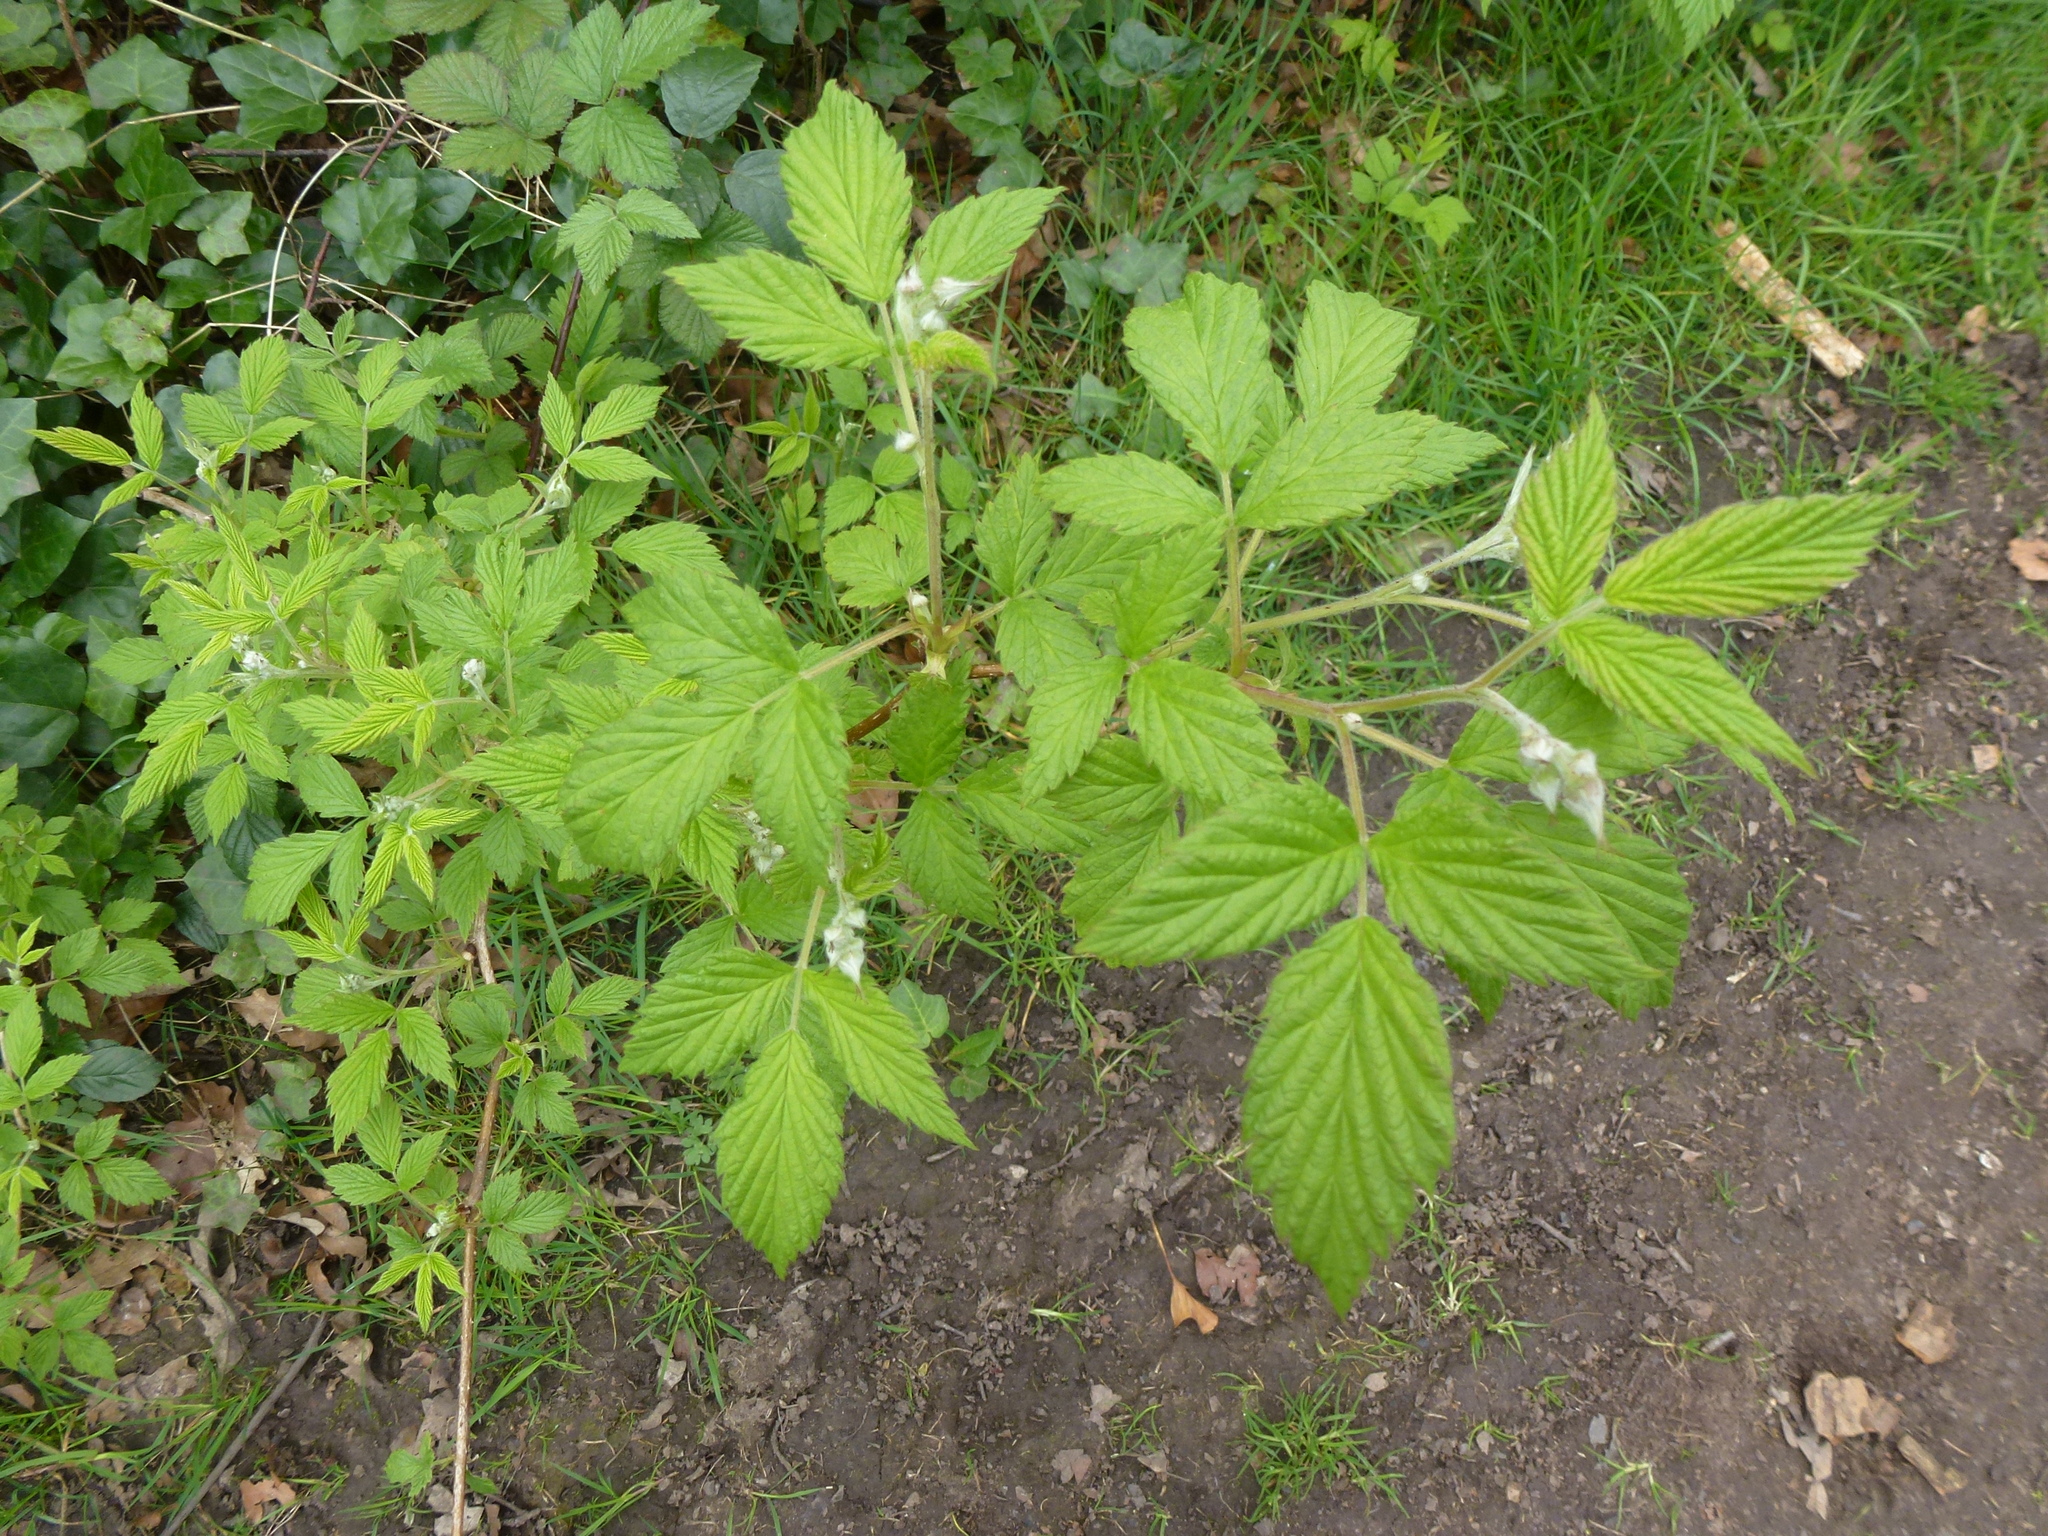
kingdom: Plantae
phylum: Tracheophyta
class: Magnoliopsida
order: Rosales
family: Rosaceae
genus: Rubus
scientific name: Rubus idaeus
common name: Raspberry
